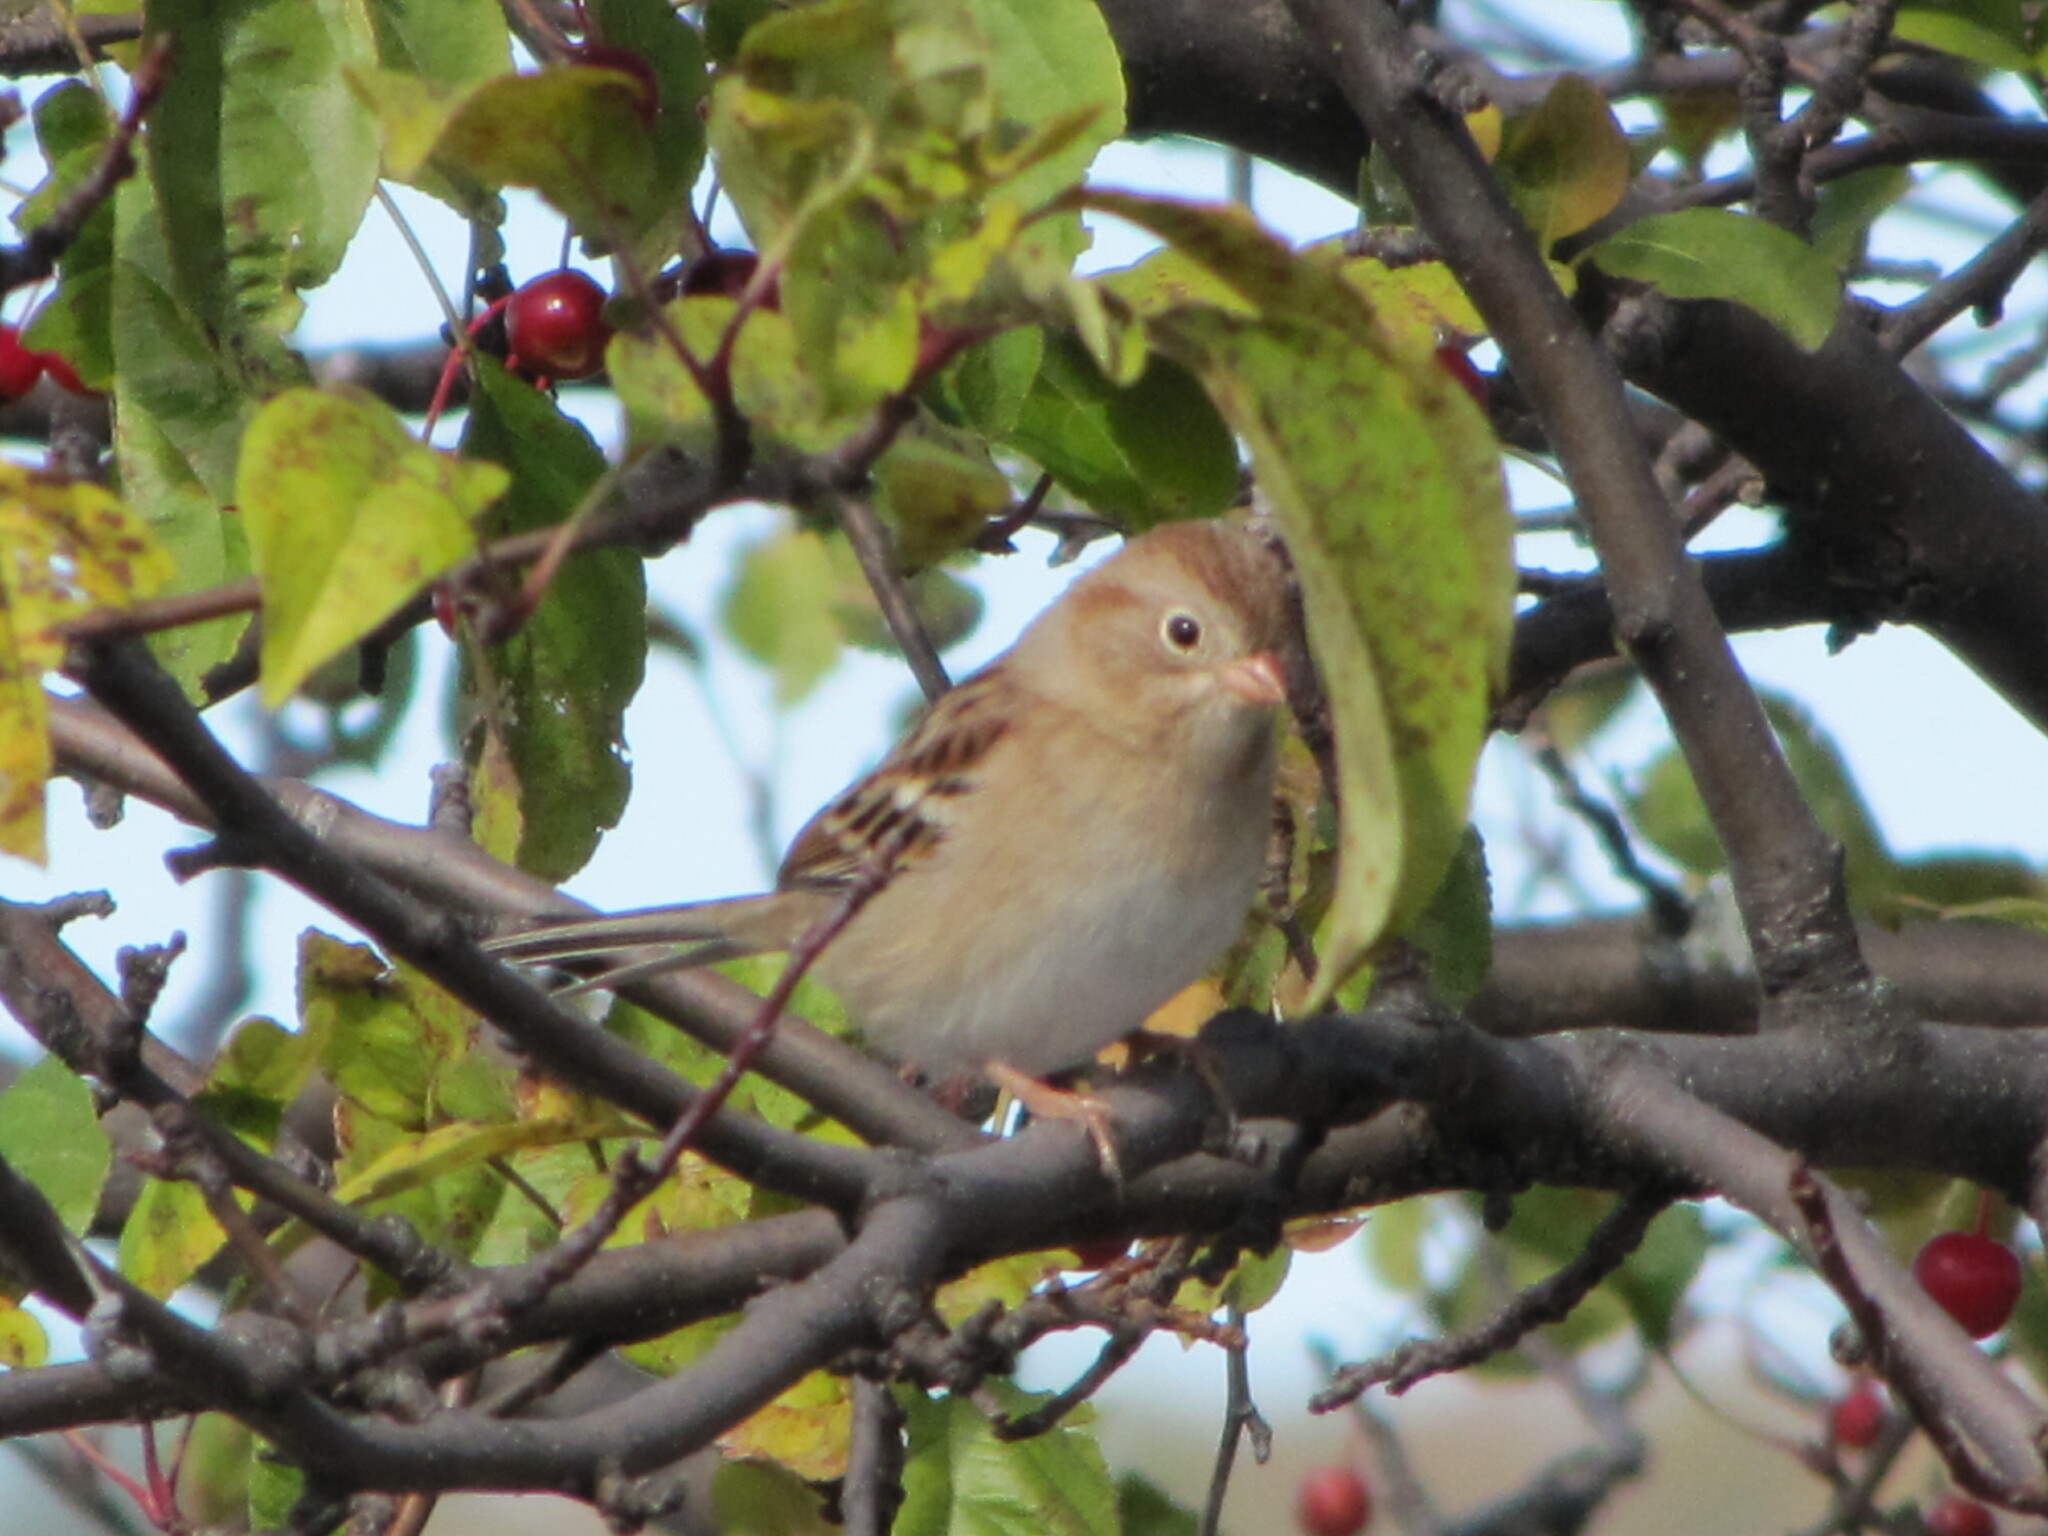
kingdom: Animalia
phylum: Chordata
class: Aves
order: Passeriformes
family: Passerellidae
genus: Spizella
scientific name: Spizella pusilla
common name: Field sparrow
